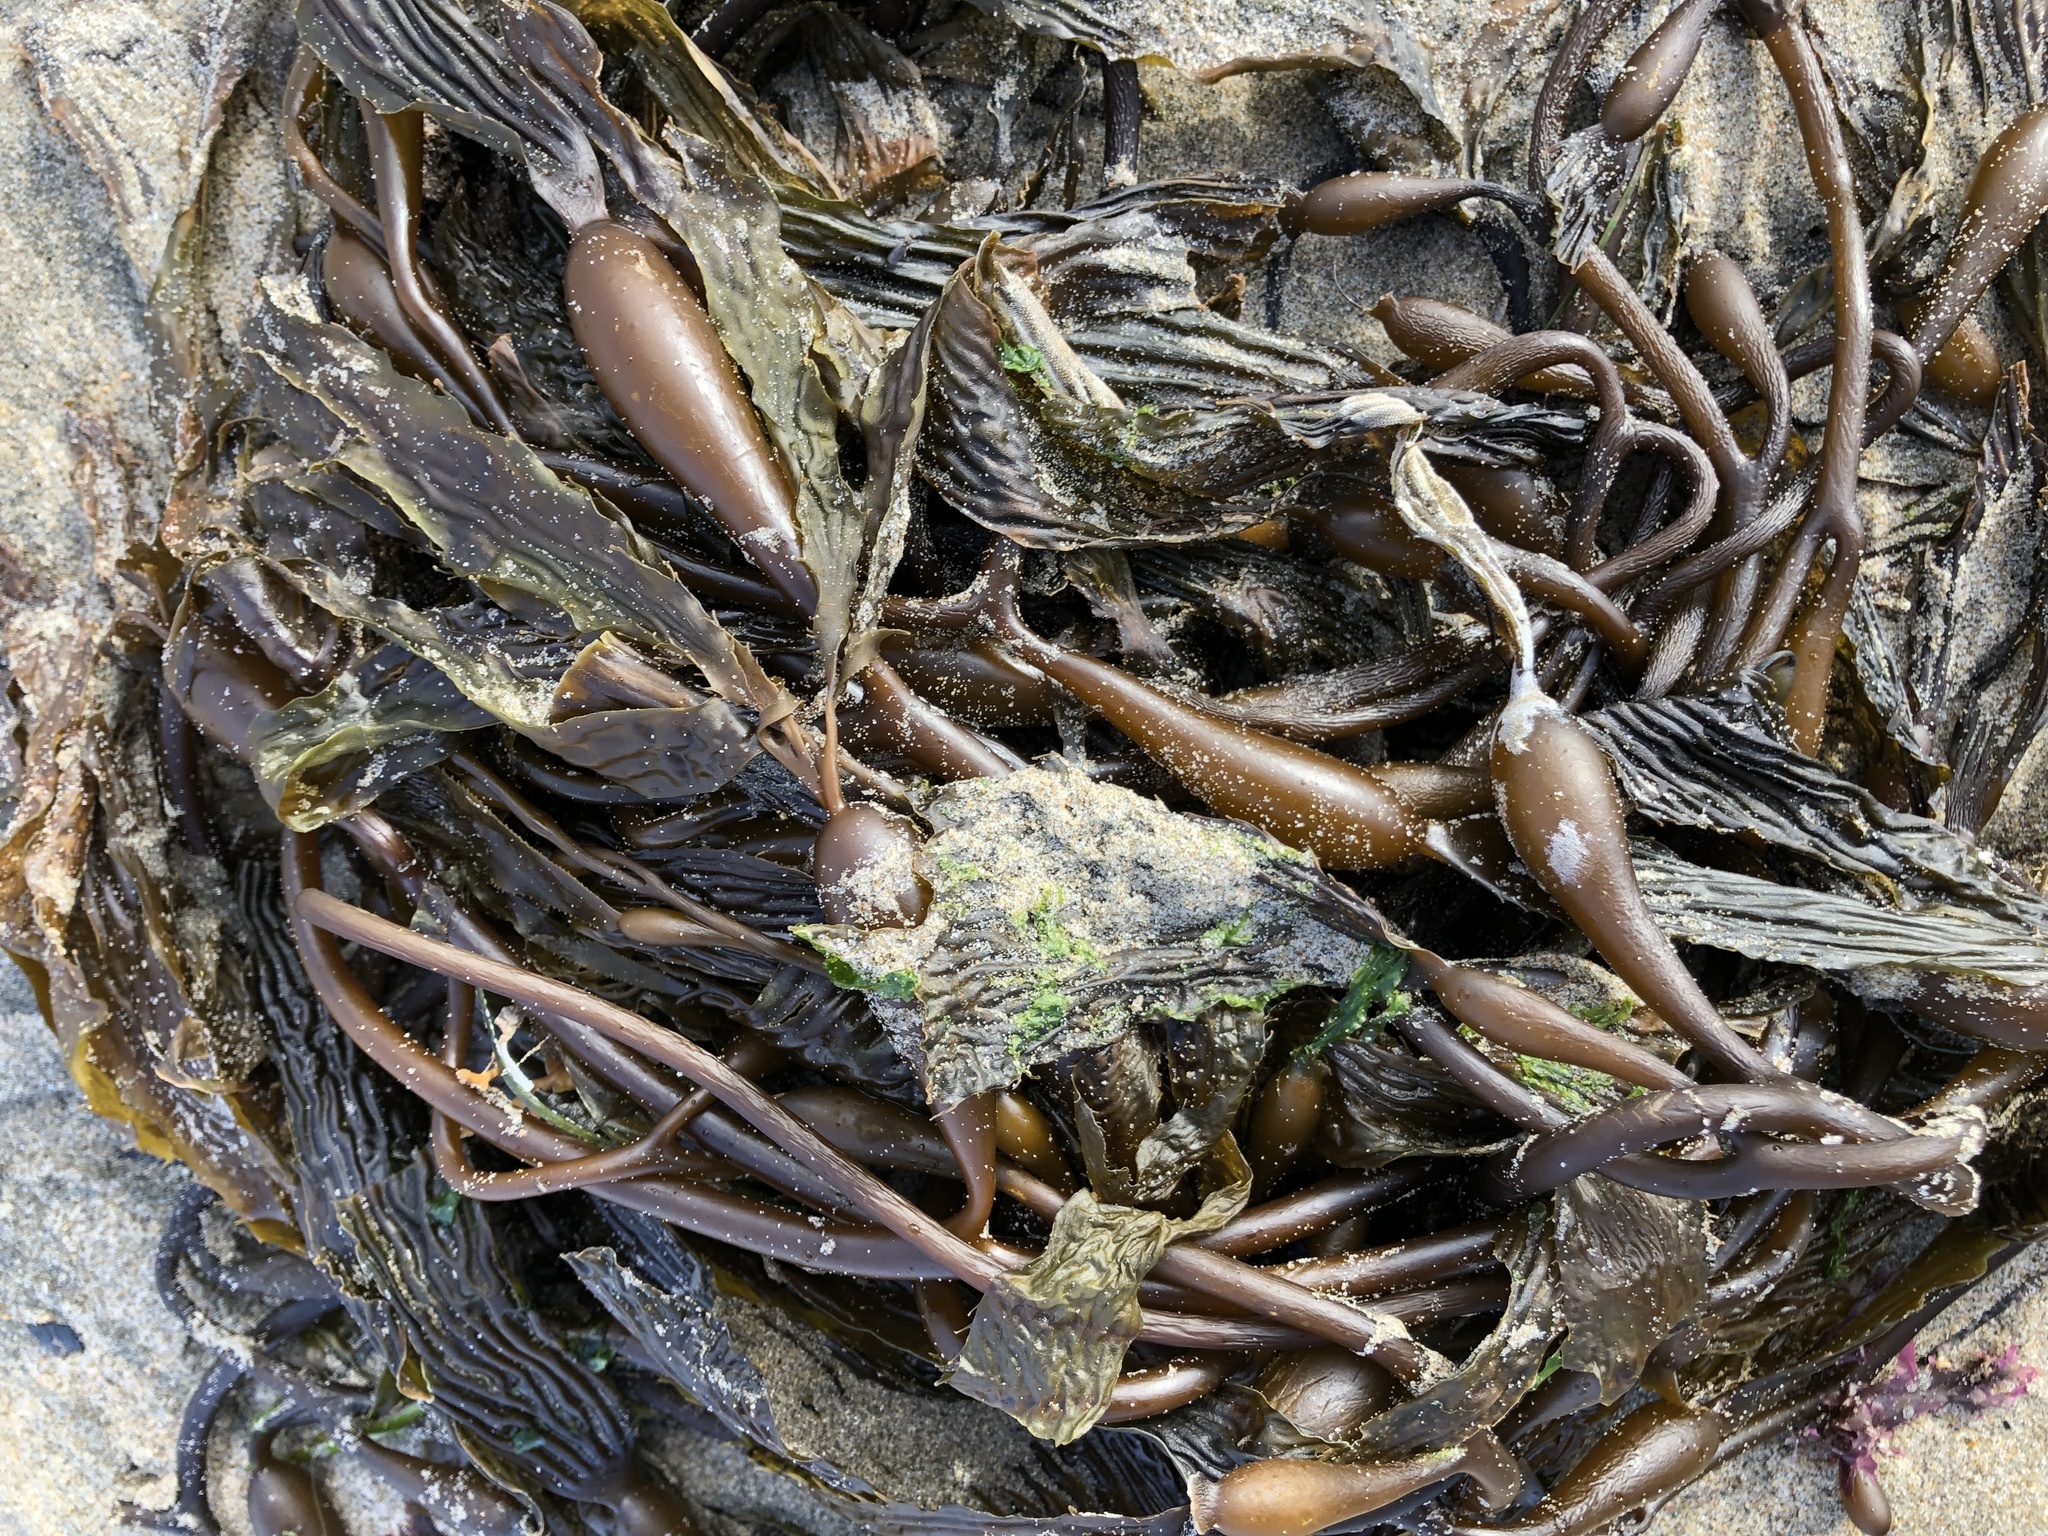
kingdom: Chromista
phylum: Ochrophyta
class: Phaeophyceae
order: Laminariales
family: Laminariaceae
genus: Macrocystis
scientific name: Macrocystis pyrifera
